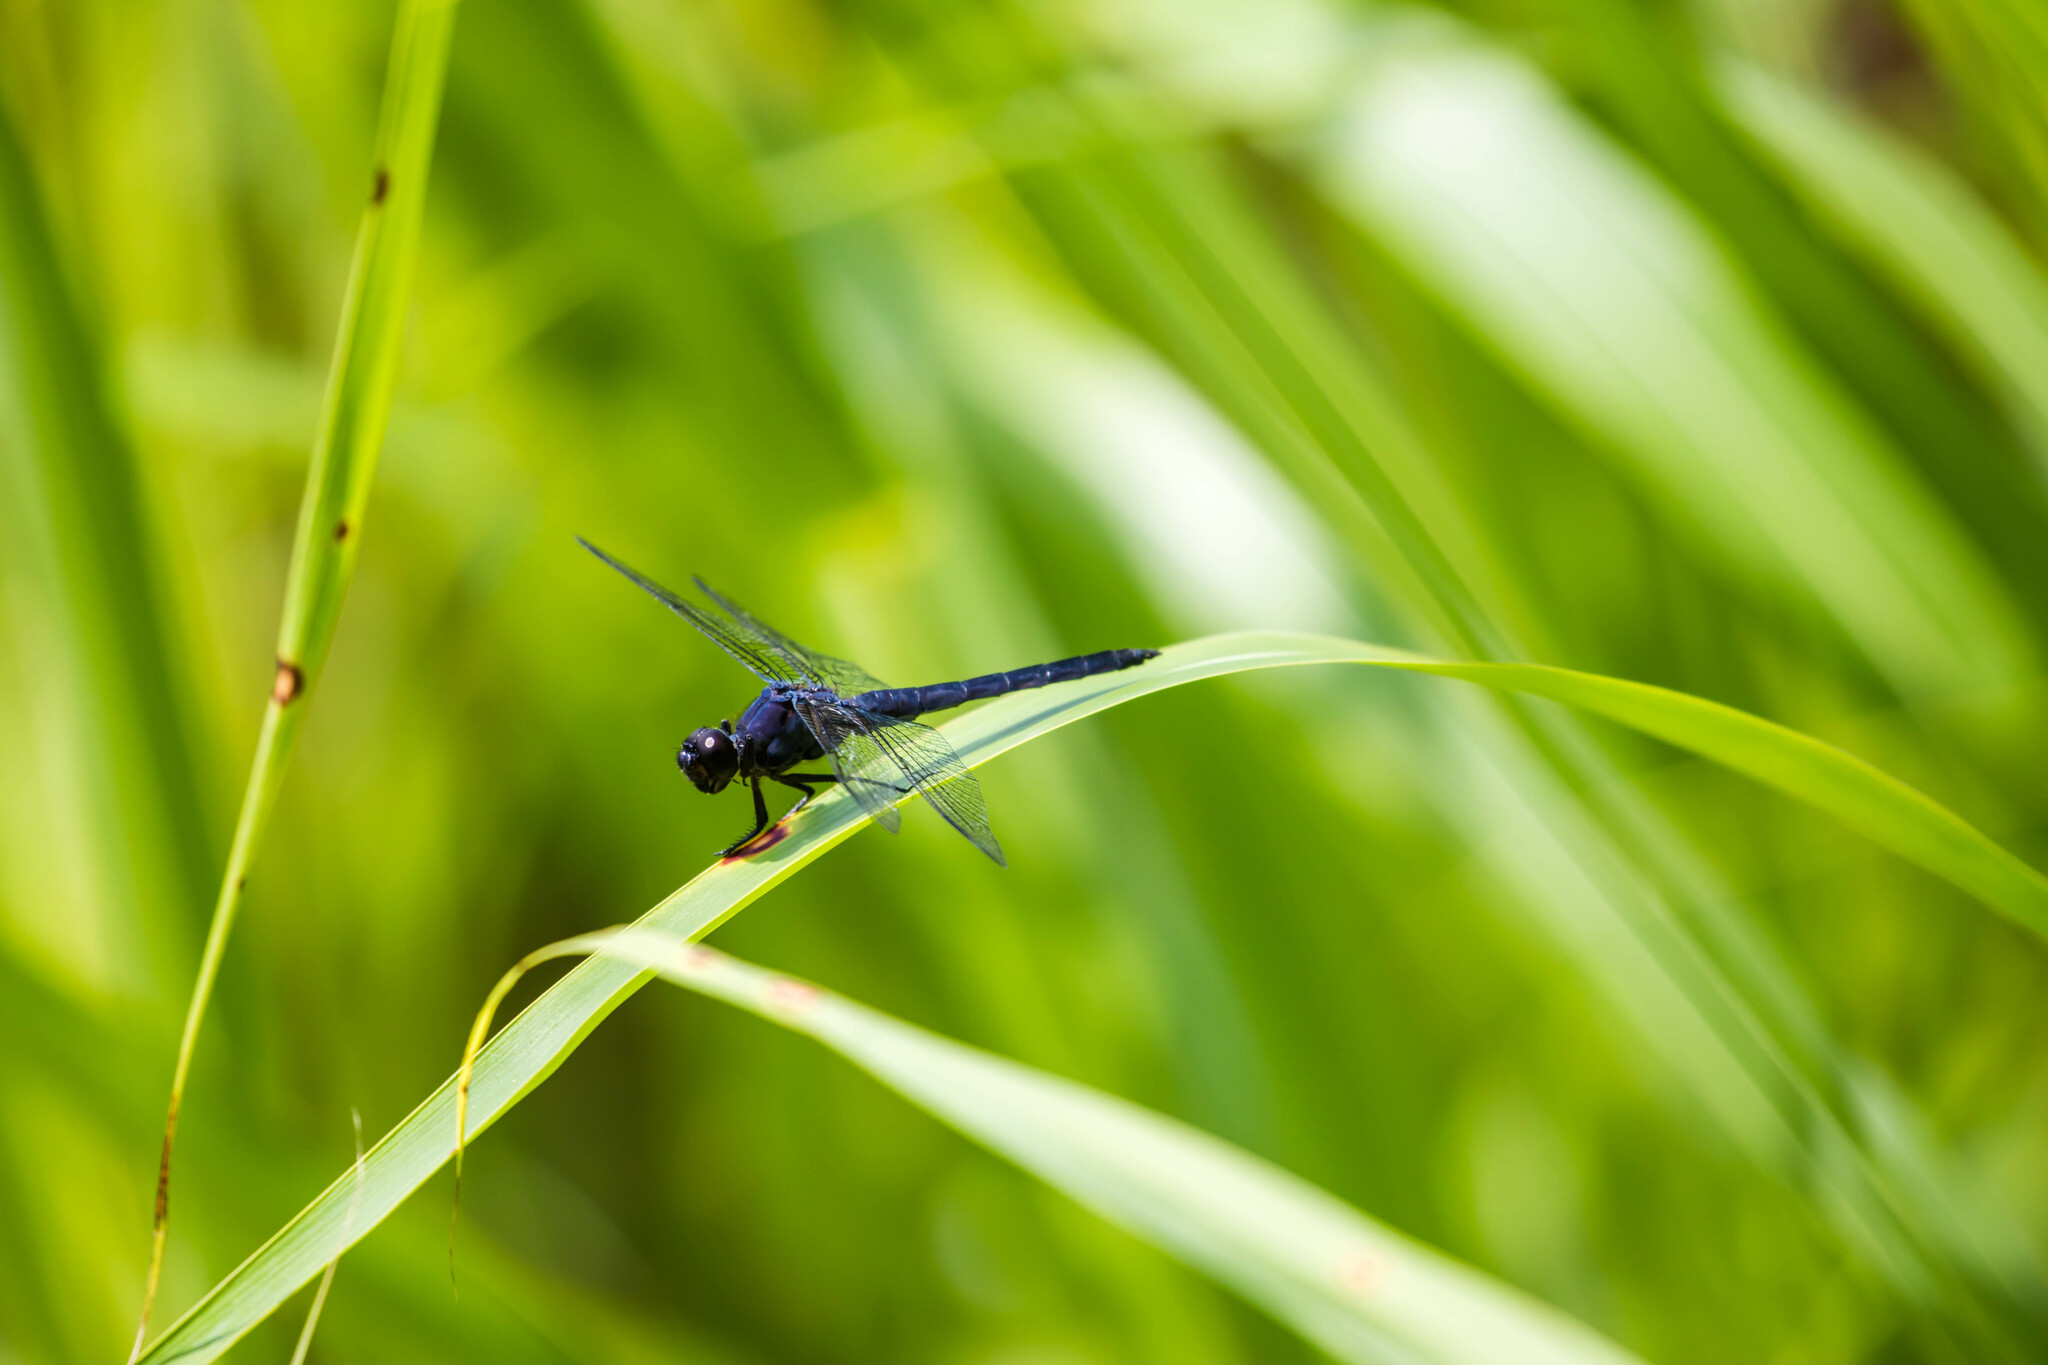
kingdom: Animalia
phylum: Arthropoda
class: Insecta
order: Odonata
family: Libellulidae
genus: Libellula
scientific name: Libellula incesta
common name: Slaty skimmer
